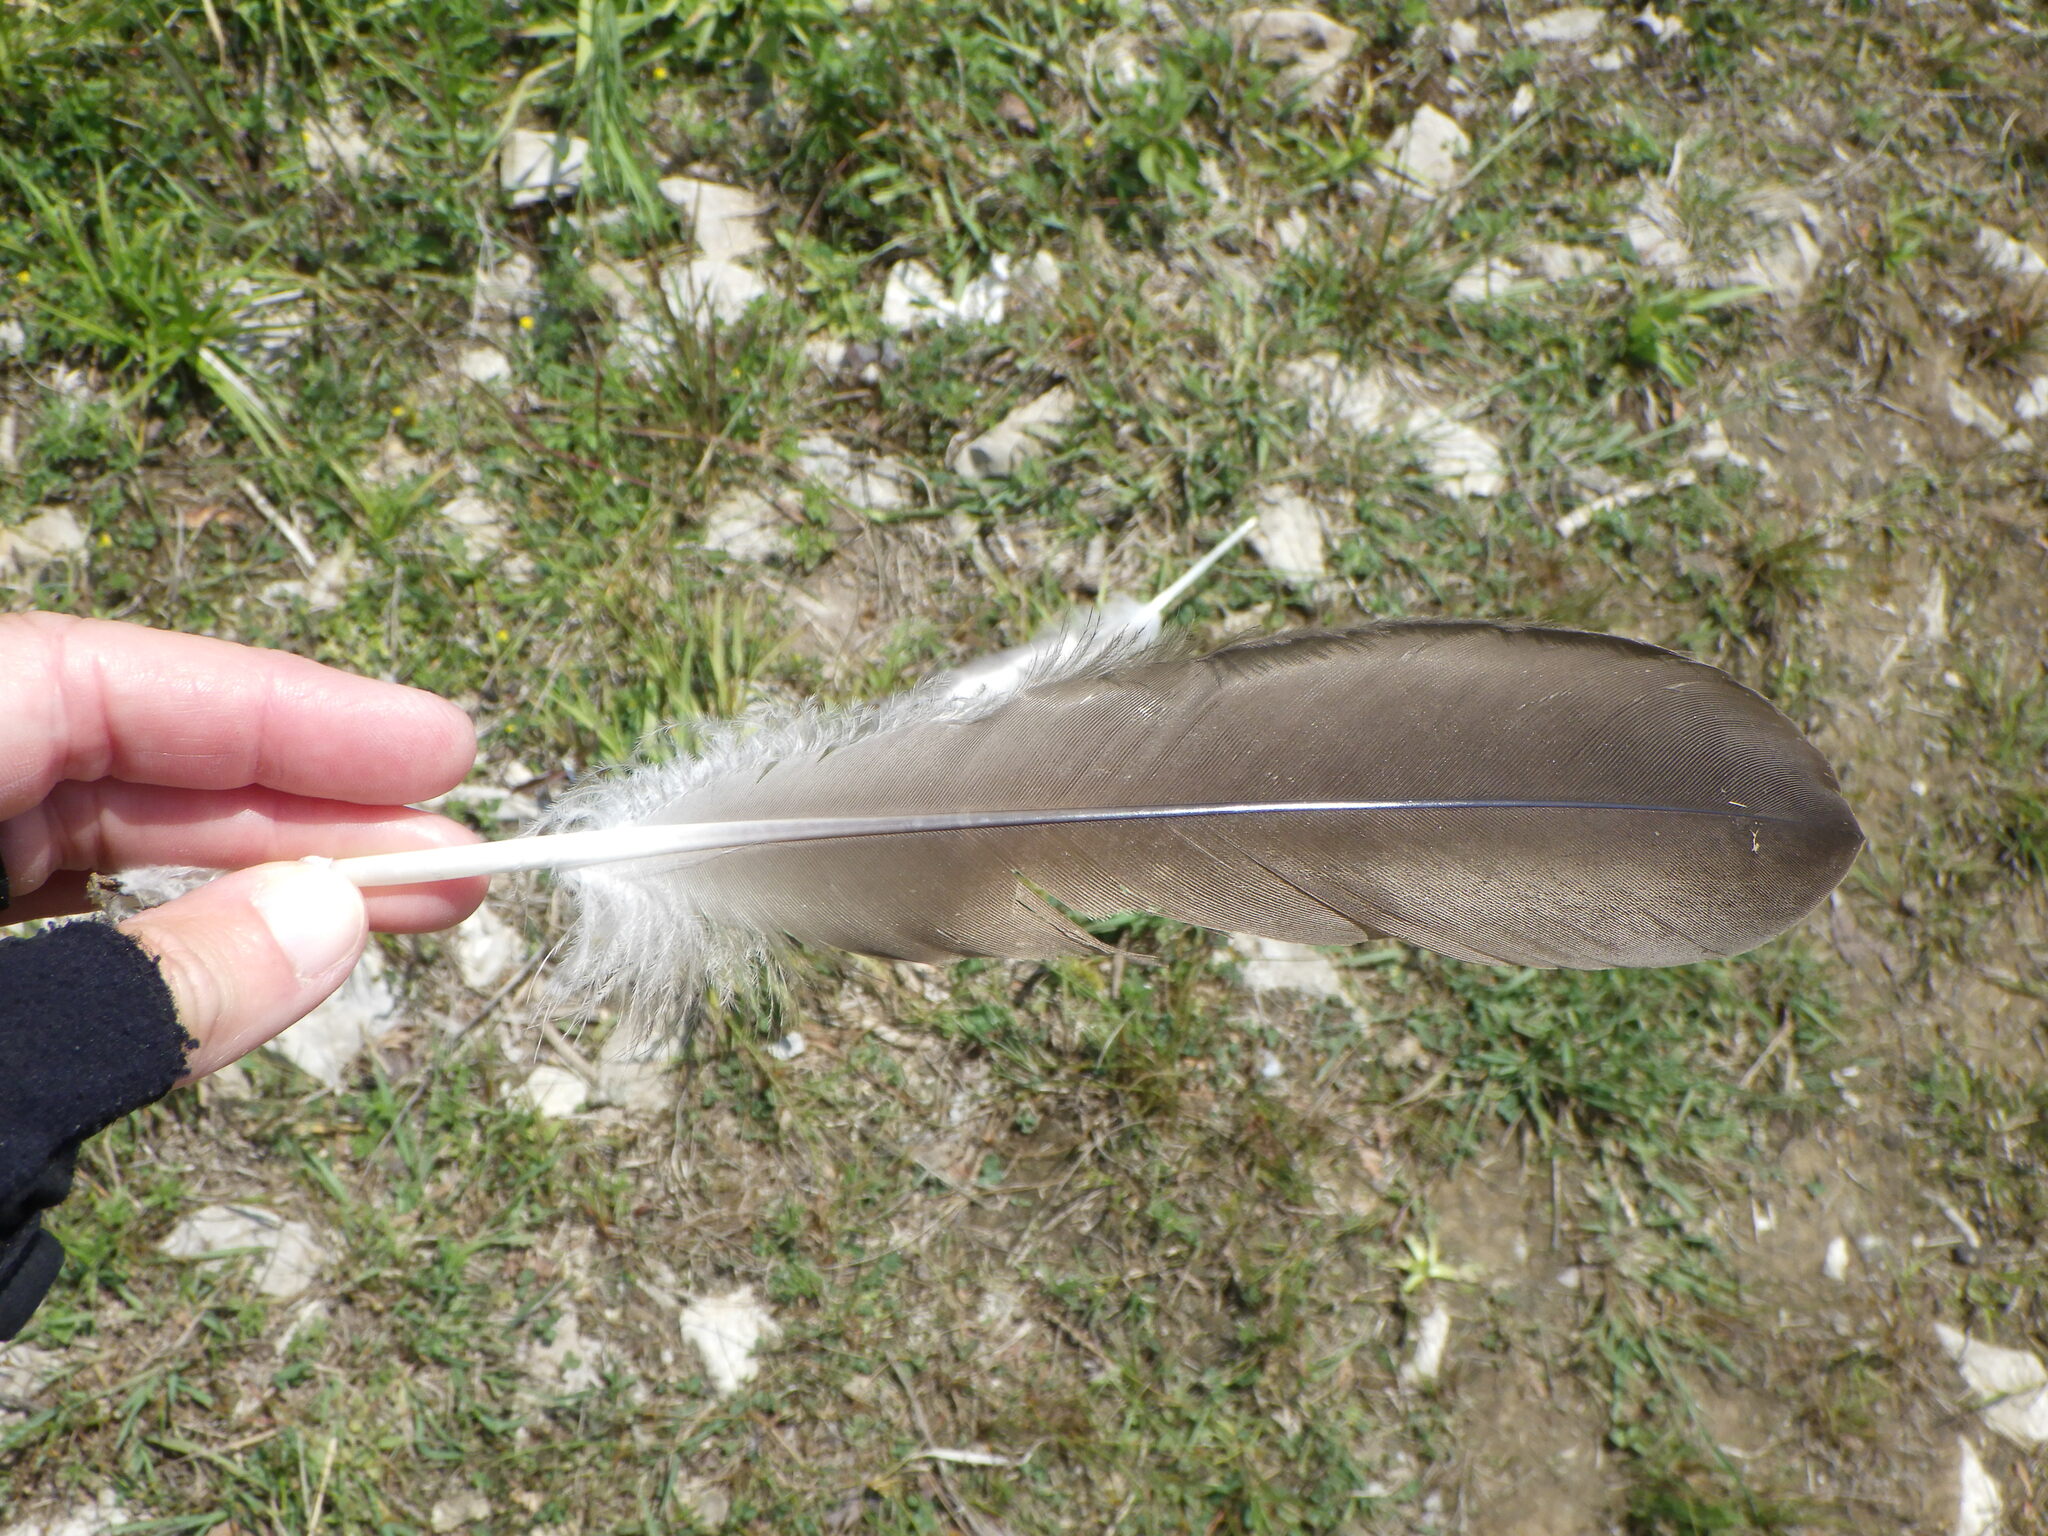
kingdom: Animalia
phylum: Chordata
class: Aves
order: Anseriformes
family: Anatidae
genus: Branta
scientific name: Branta canadensis
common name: Canada goose
